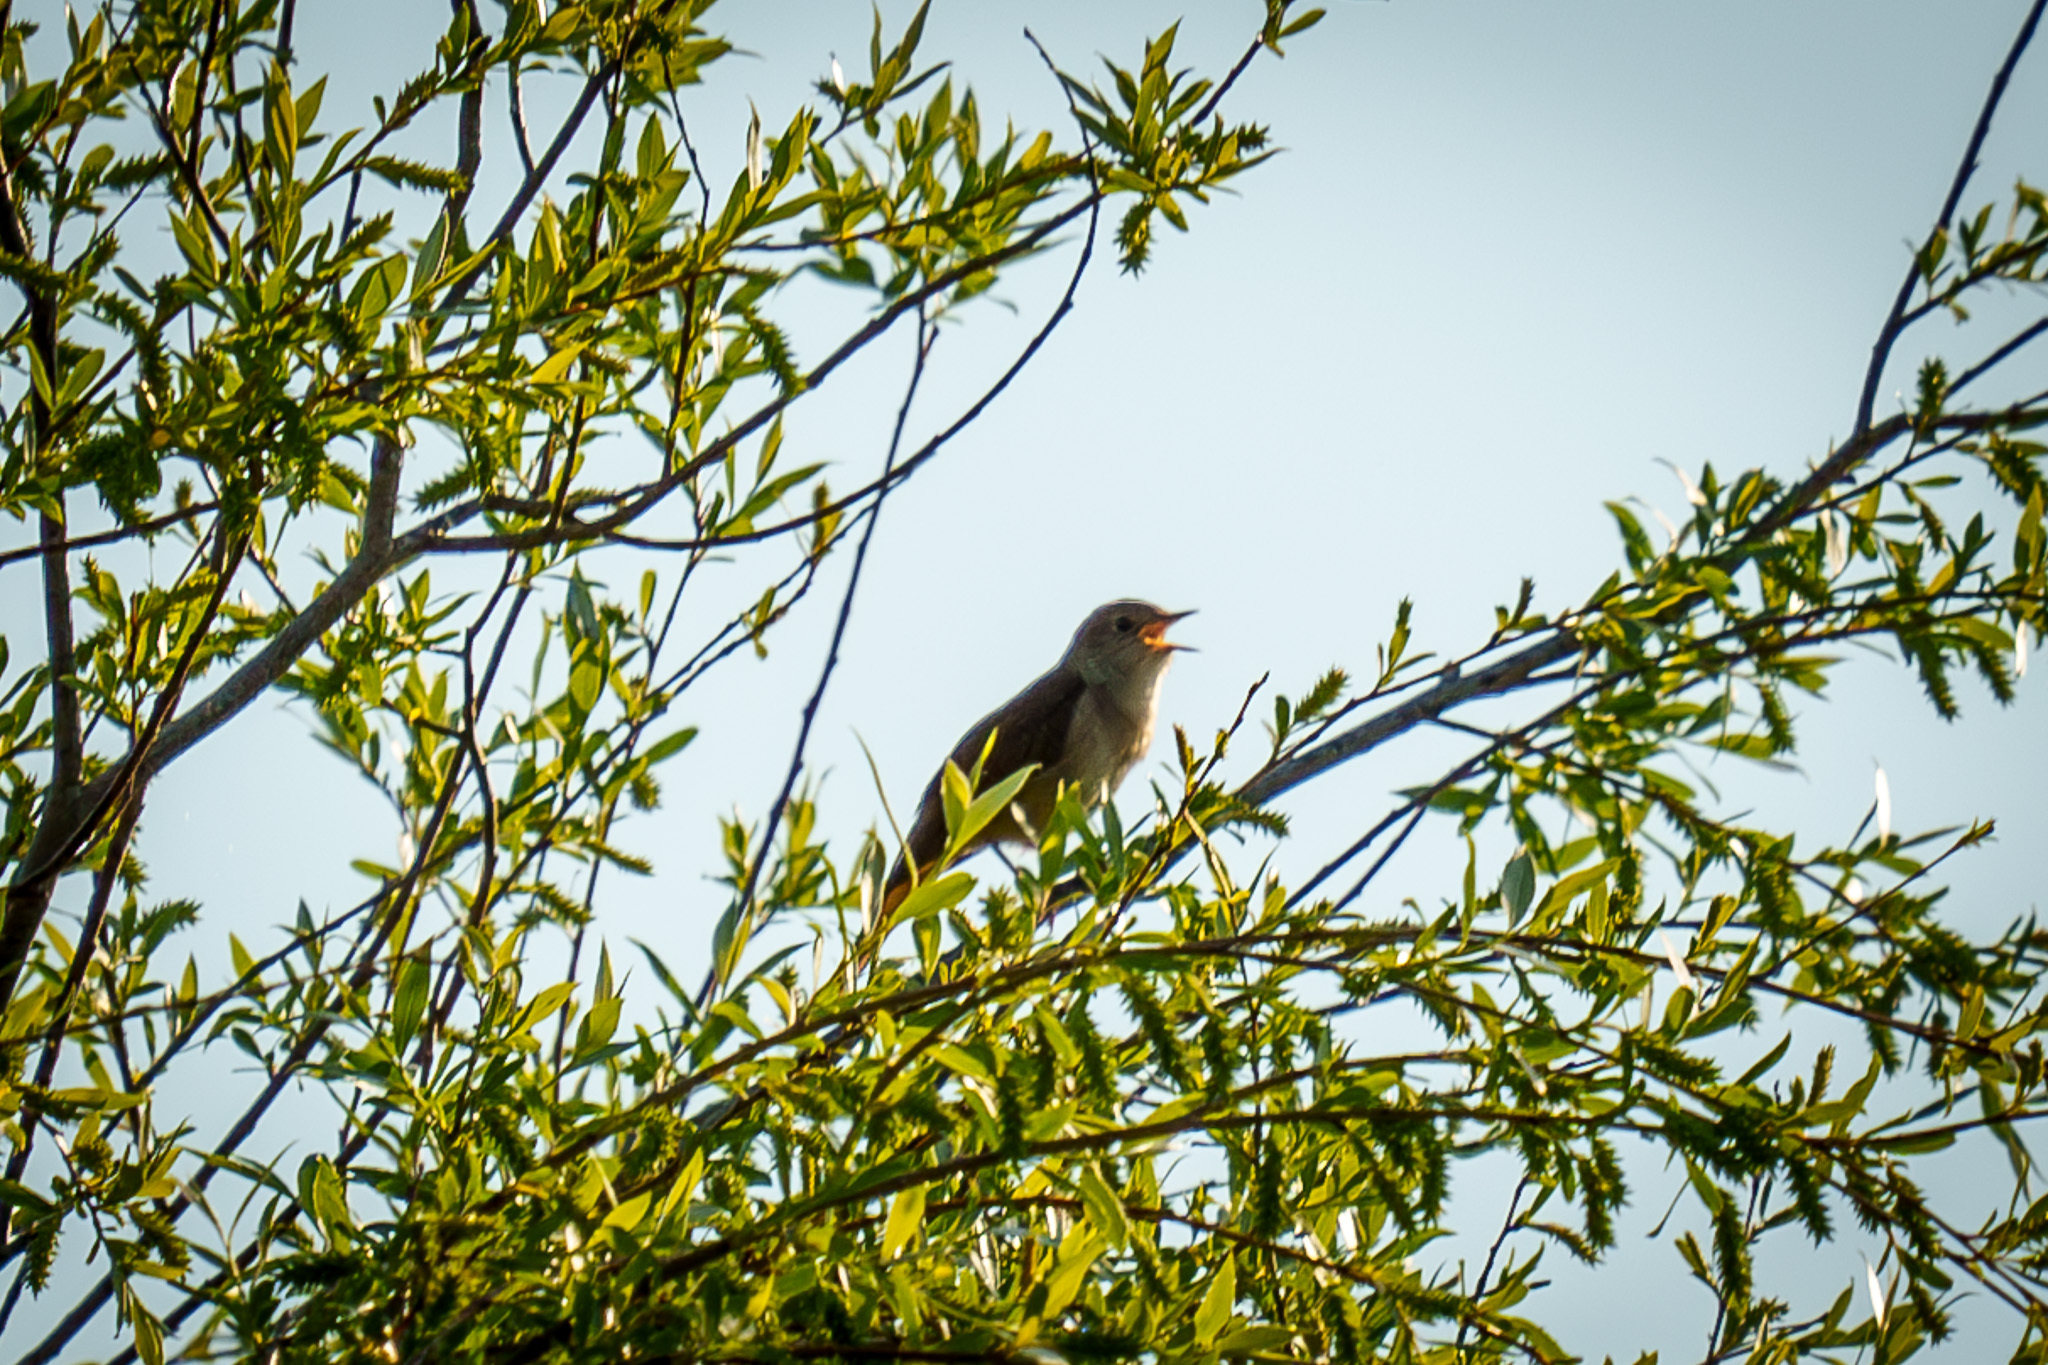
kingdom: Animalia
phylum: Chordata
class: Aves
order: Passeriformes
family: Muscicapidae
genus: Luscinia
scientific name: Luscinia megarhynchos
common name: Common nightingale
